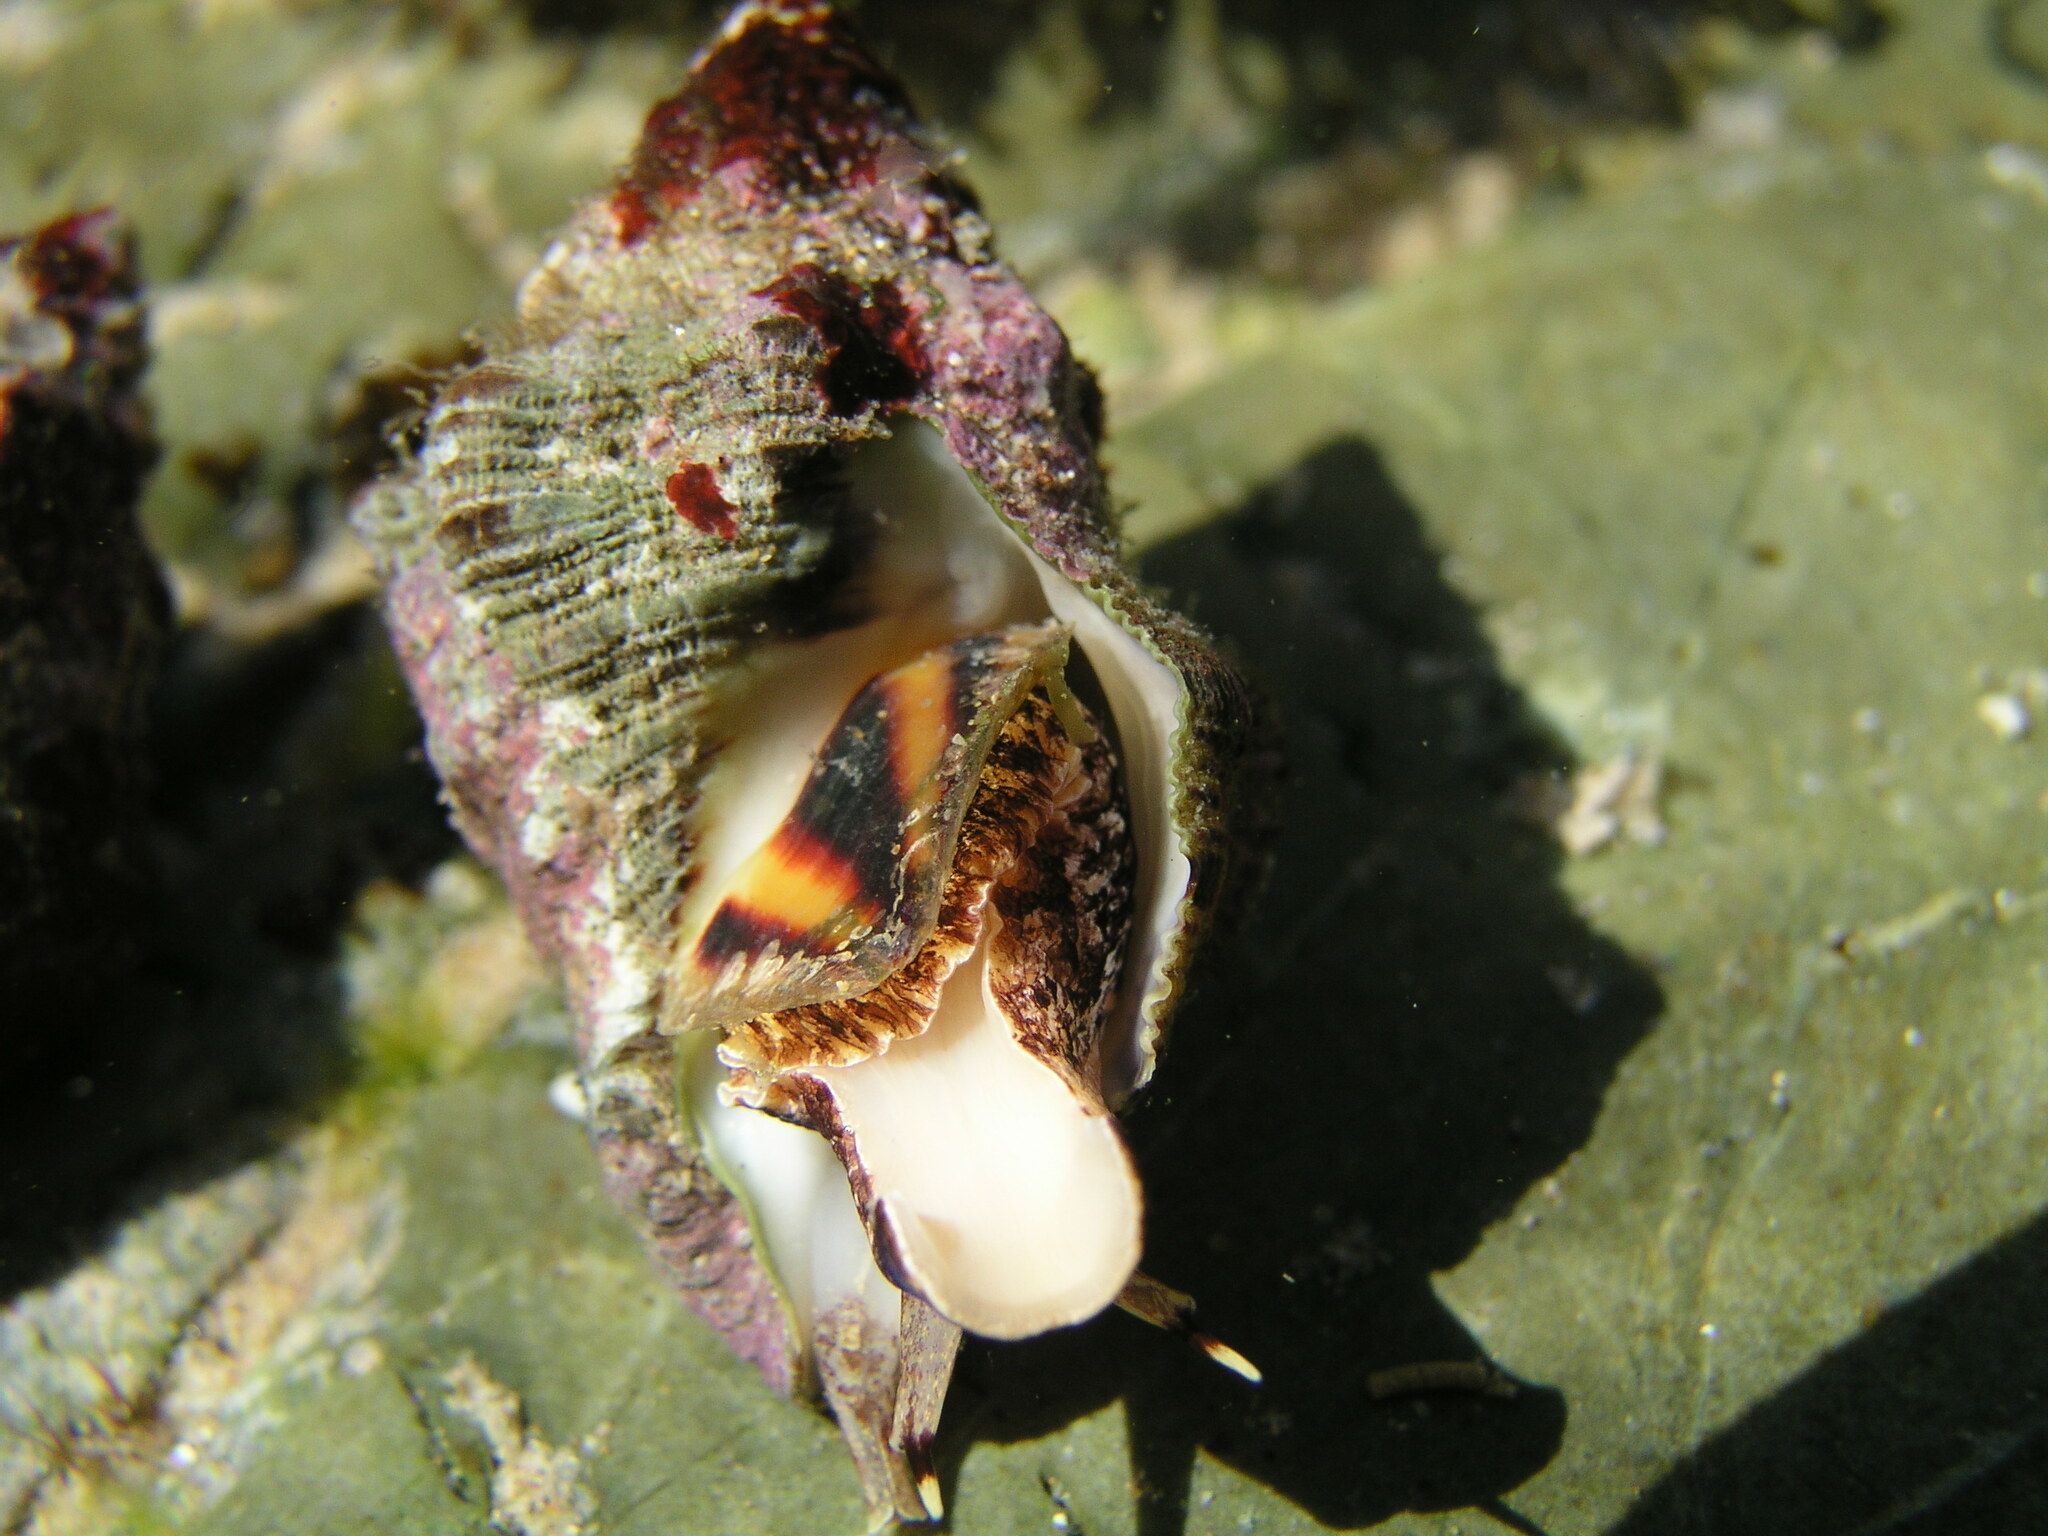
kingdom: Animalia
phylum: Mollusca
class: Gastropoda
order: Neogastropoda
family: Muricidae
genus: Thais
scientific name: Thais ambustulata
